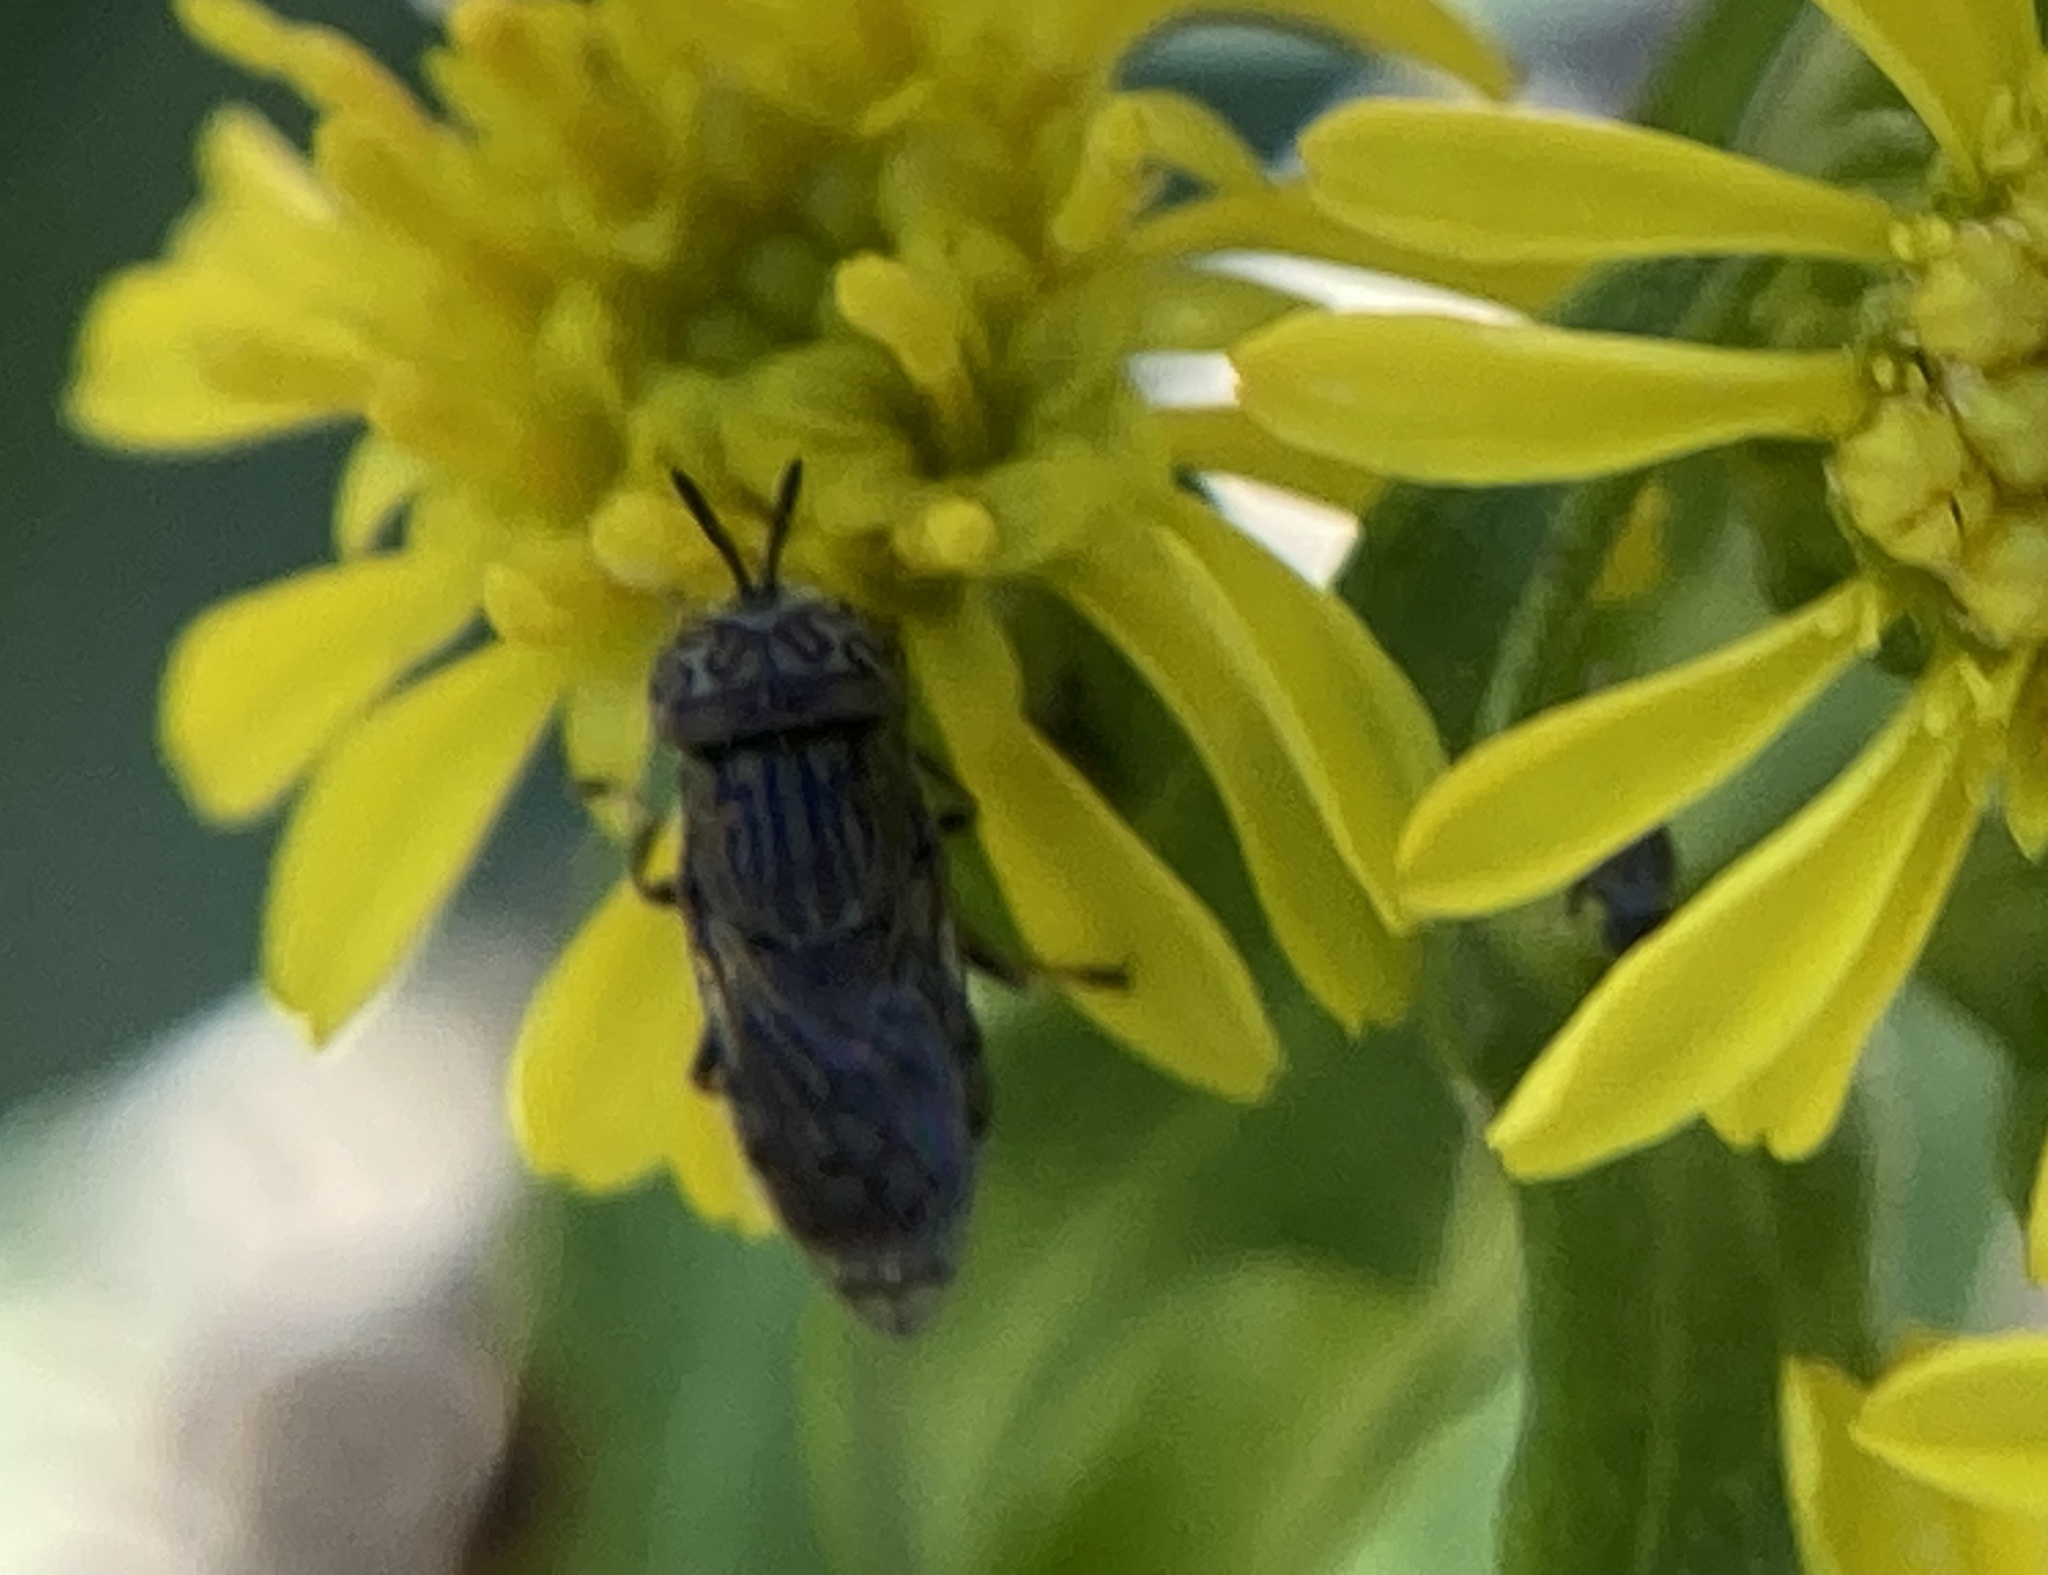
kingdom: Animalia
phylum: Arthropoda
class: Insecta
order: Diptera
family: Syrphidae
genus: Orthonevra
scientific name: Orthonevra nitida
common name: Wavy mucksucker
